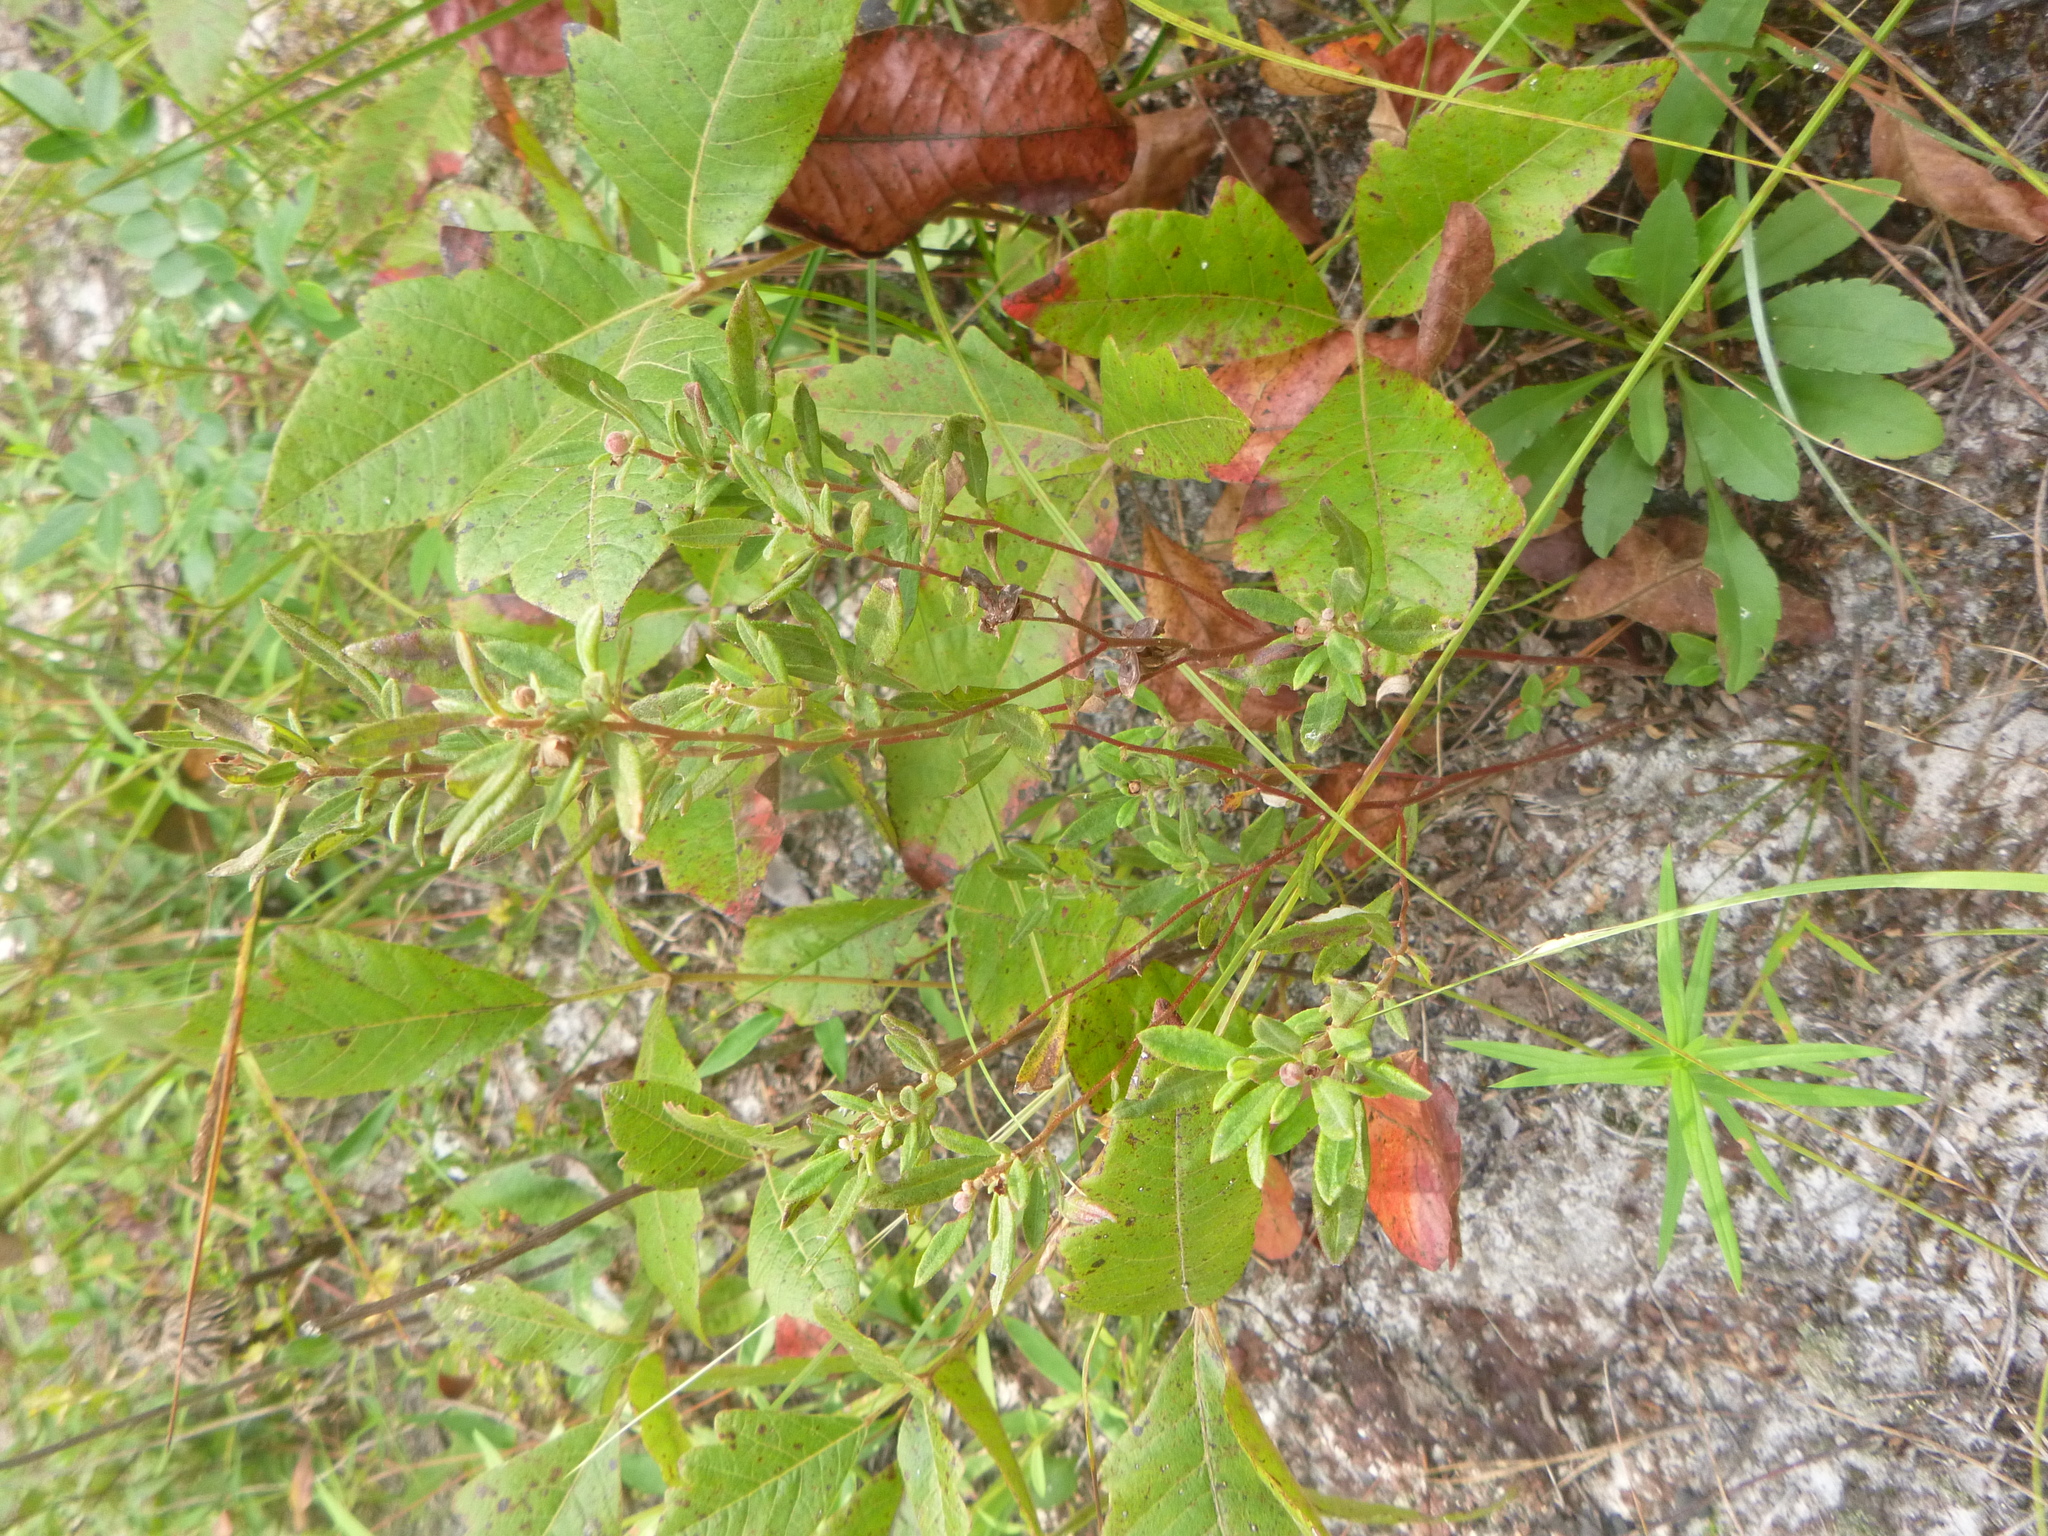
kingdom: Plantae
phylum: Tracheophyta
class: Magnoliopsida
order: Malvales
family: Cistaceae
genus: Crocanthemum
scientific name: Crocanthemum canadense
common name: Canada frostweed
